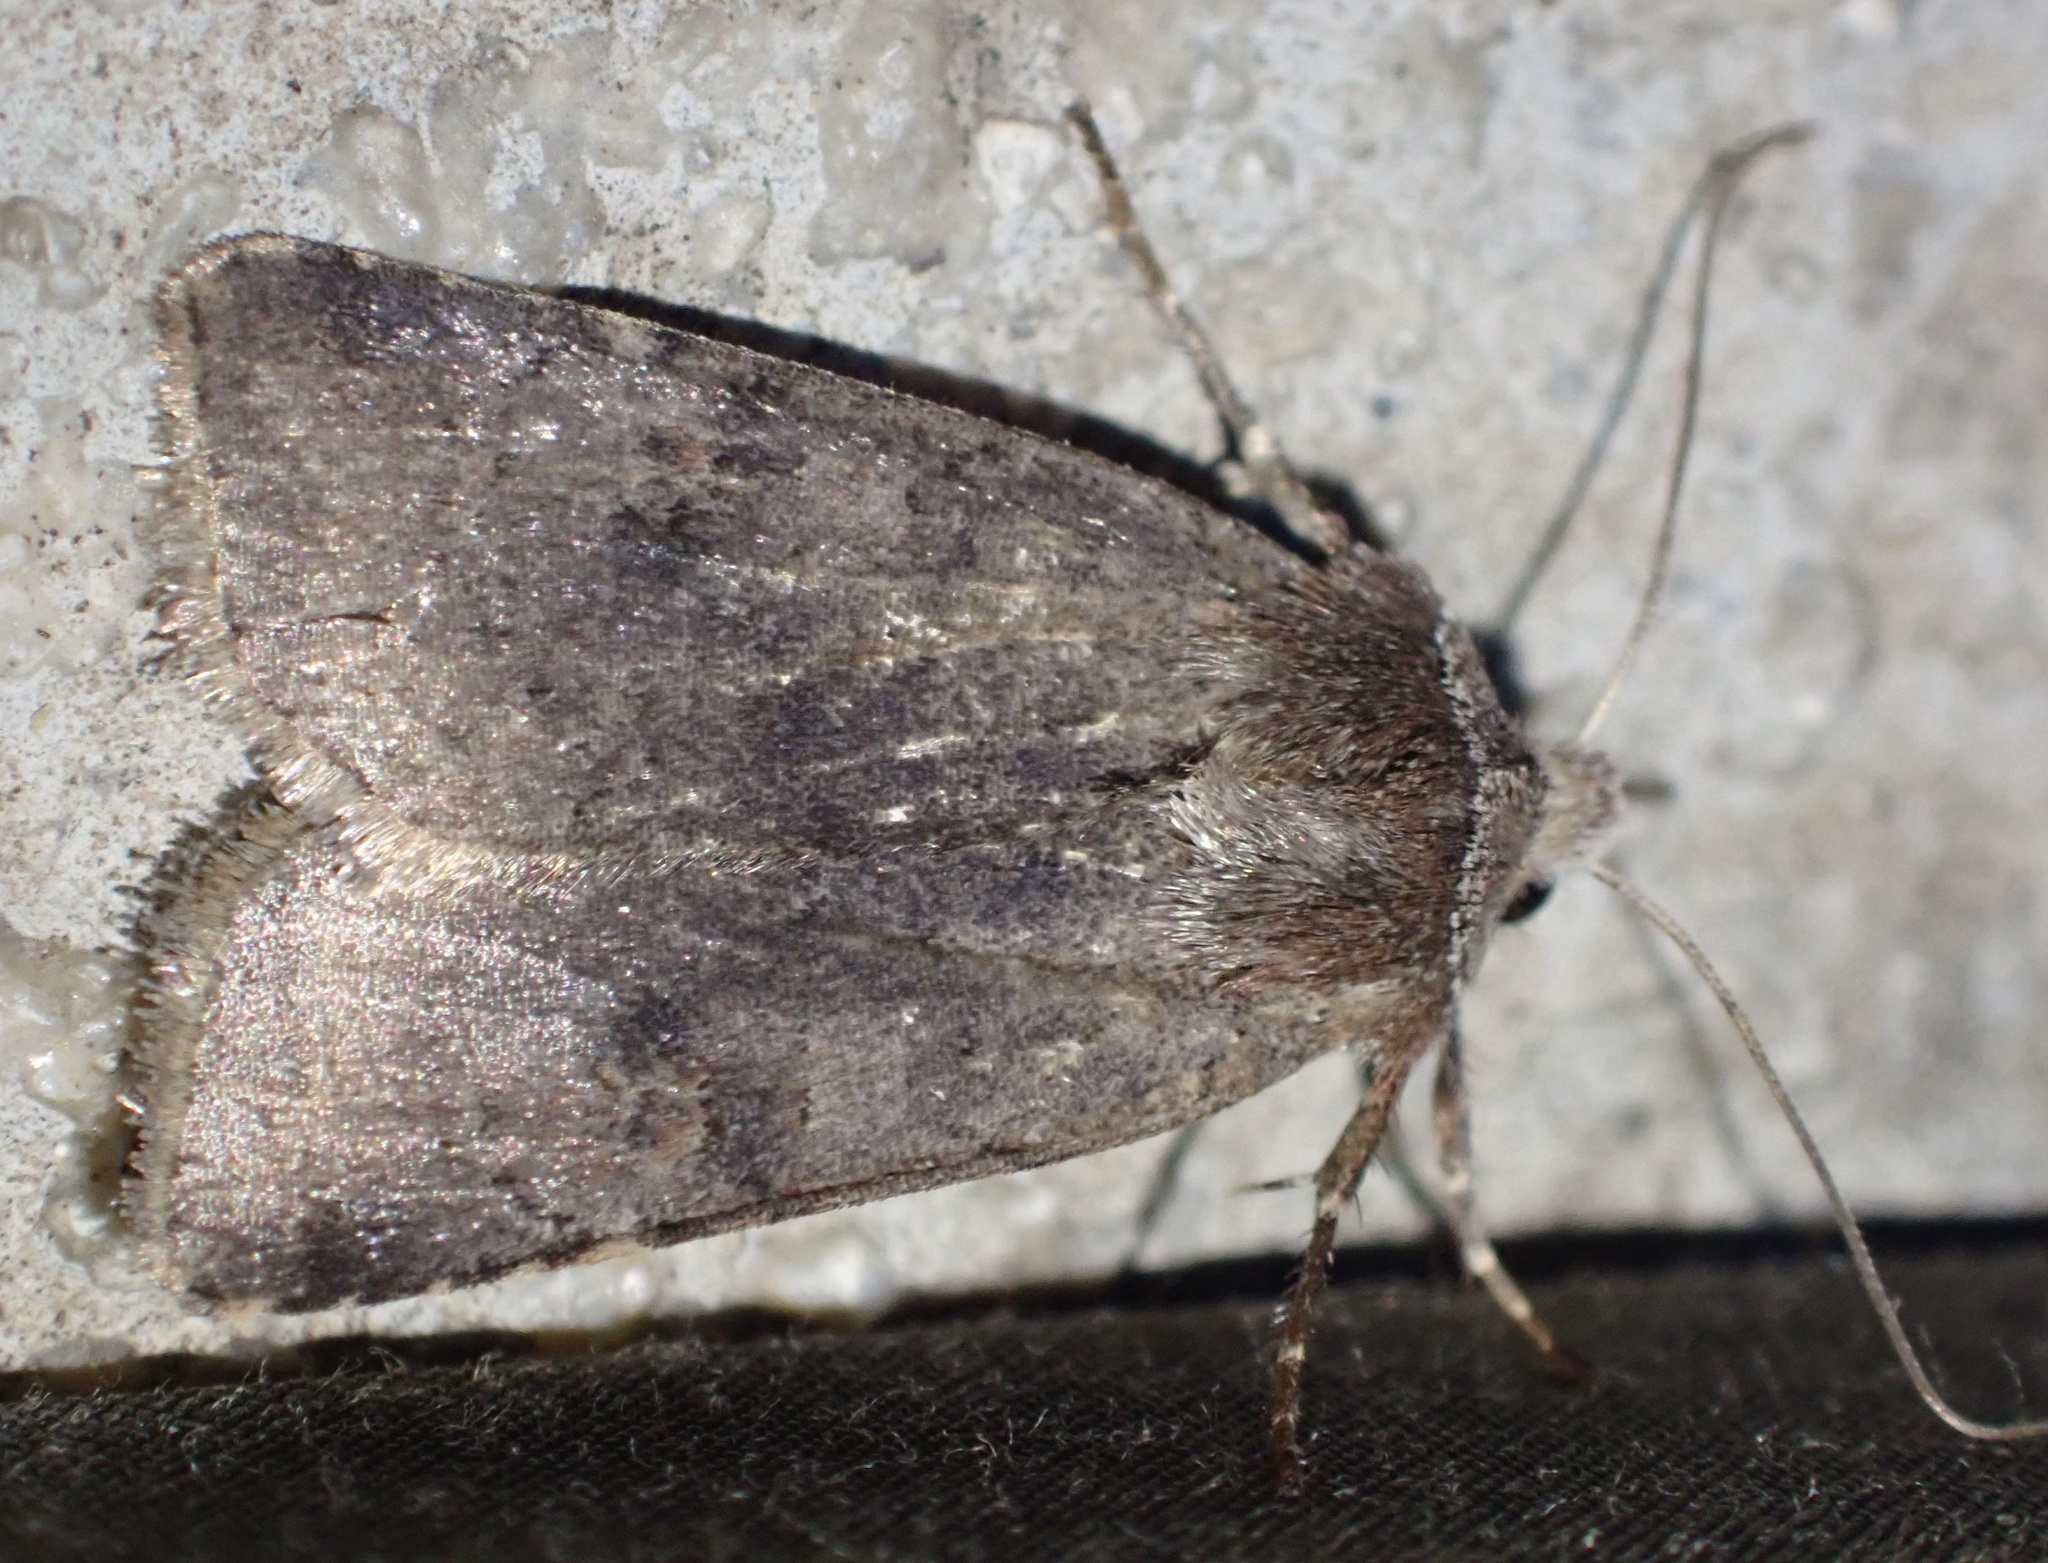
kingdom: Animalia
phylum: Arthropoda
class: Insecta
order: Lepidoptera
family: Noctuidae
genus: Cerastis
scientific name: Cerastis faceta
